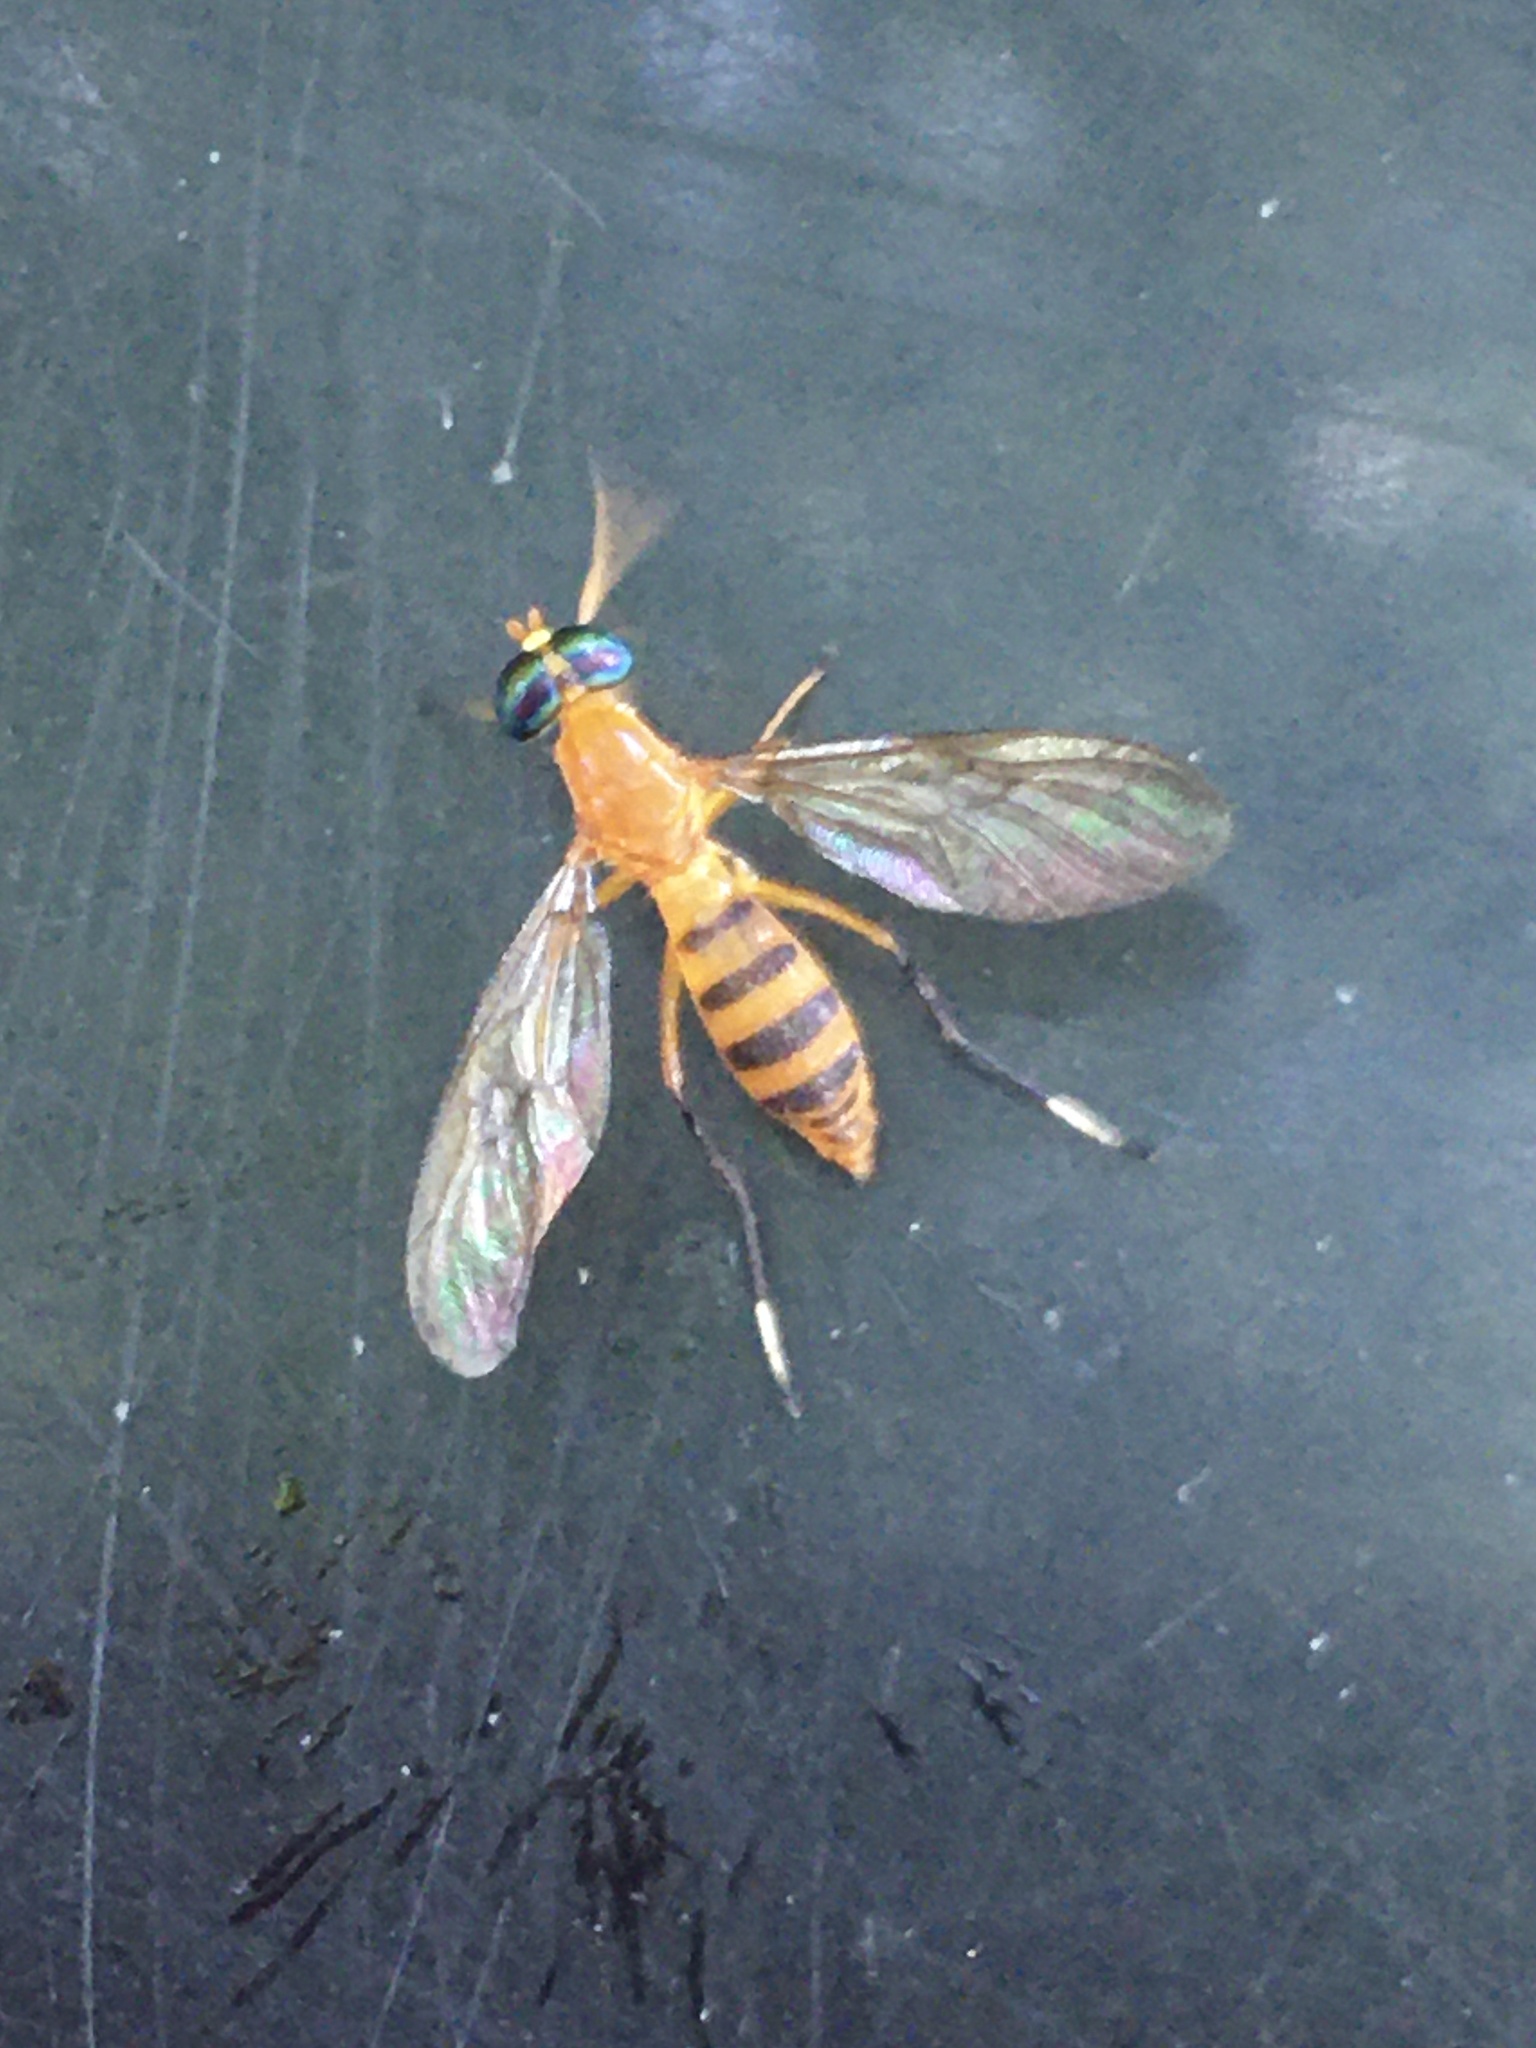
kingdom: Animalia
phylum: Arthropoda
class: Insecta
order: Diptera
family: Stratiomyidae
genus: Ptecticus
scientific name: Ptecticus testaceus
